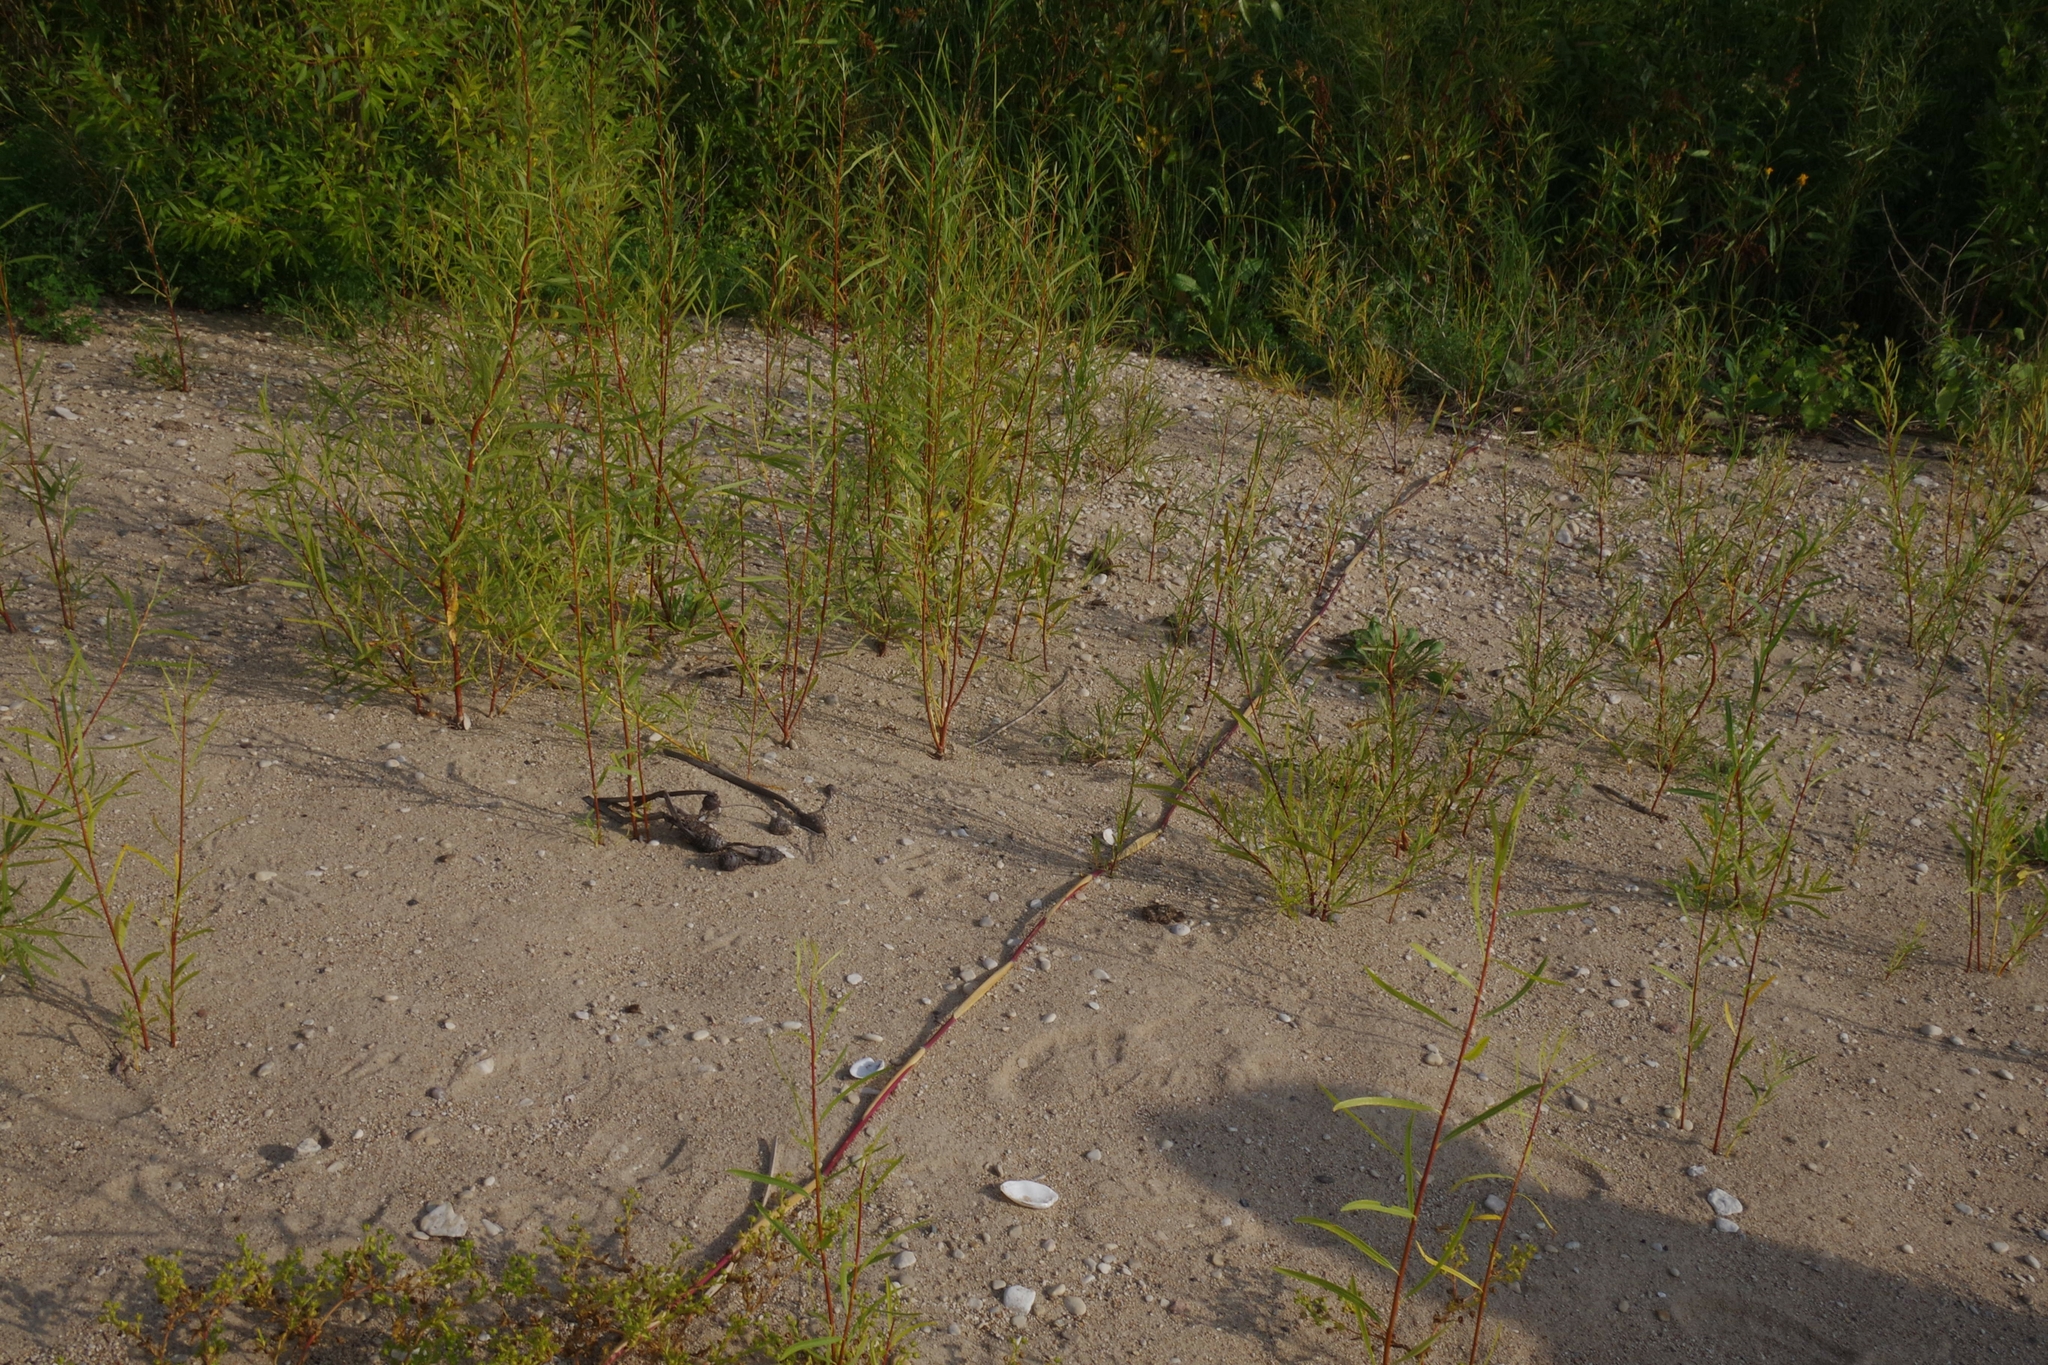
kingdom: Plantae
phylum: Tracheophyta
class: Liliopsida
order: Poales
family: Poaceae
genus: Phragmites
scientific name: Phragmites australis
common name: Common reed
